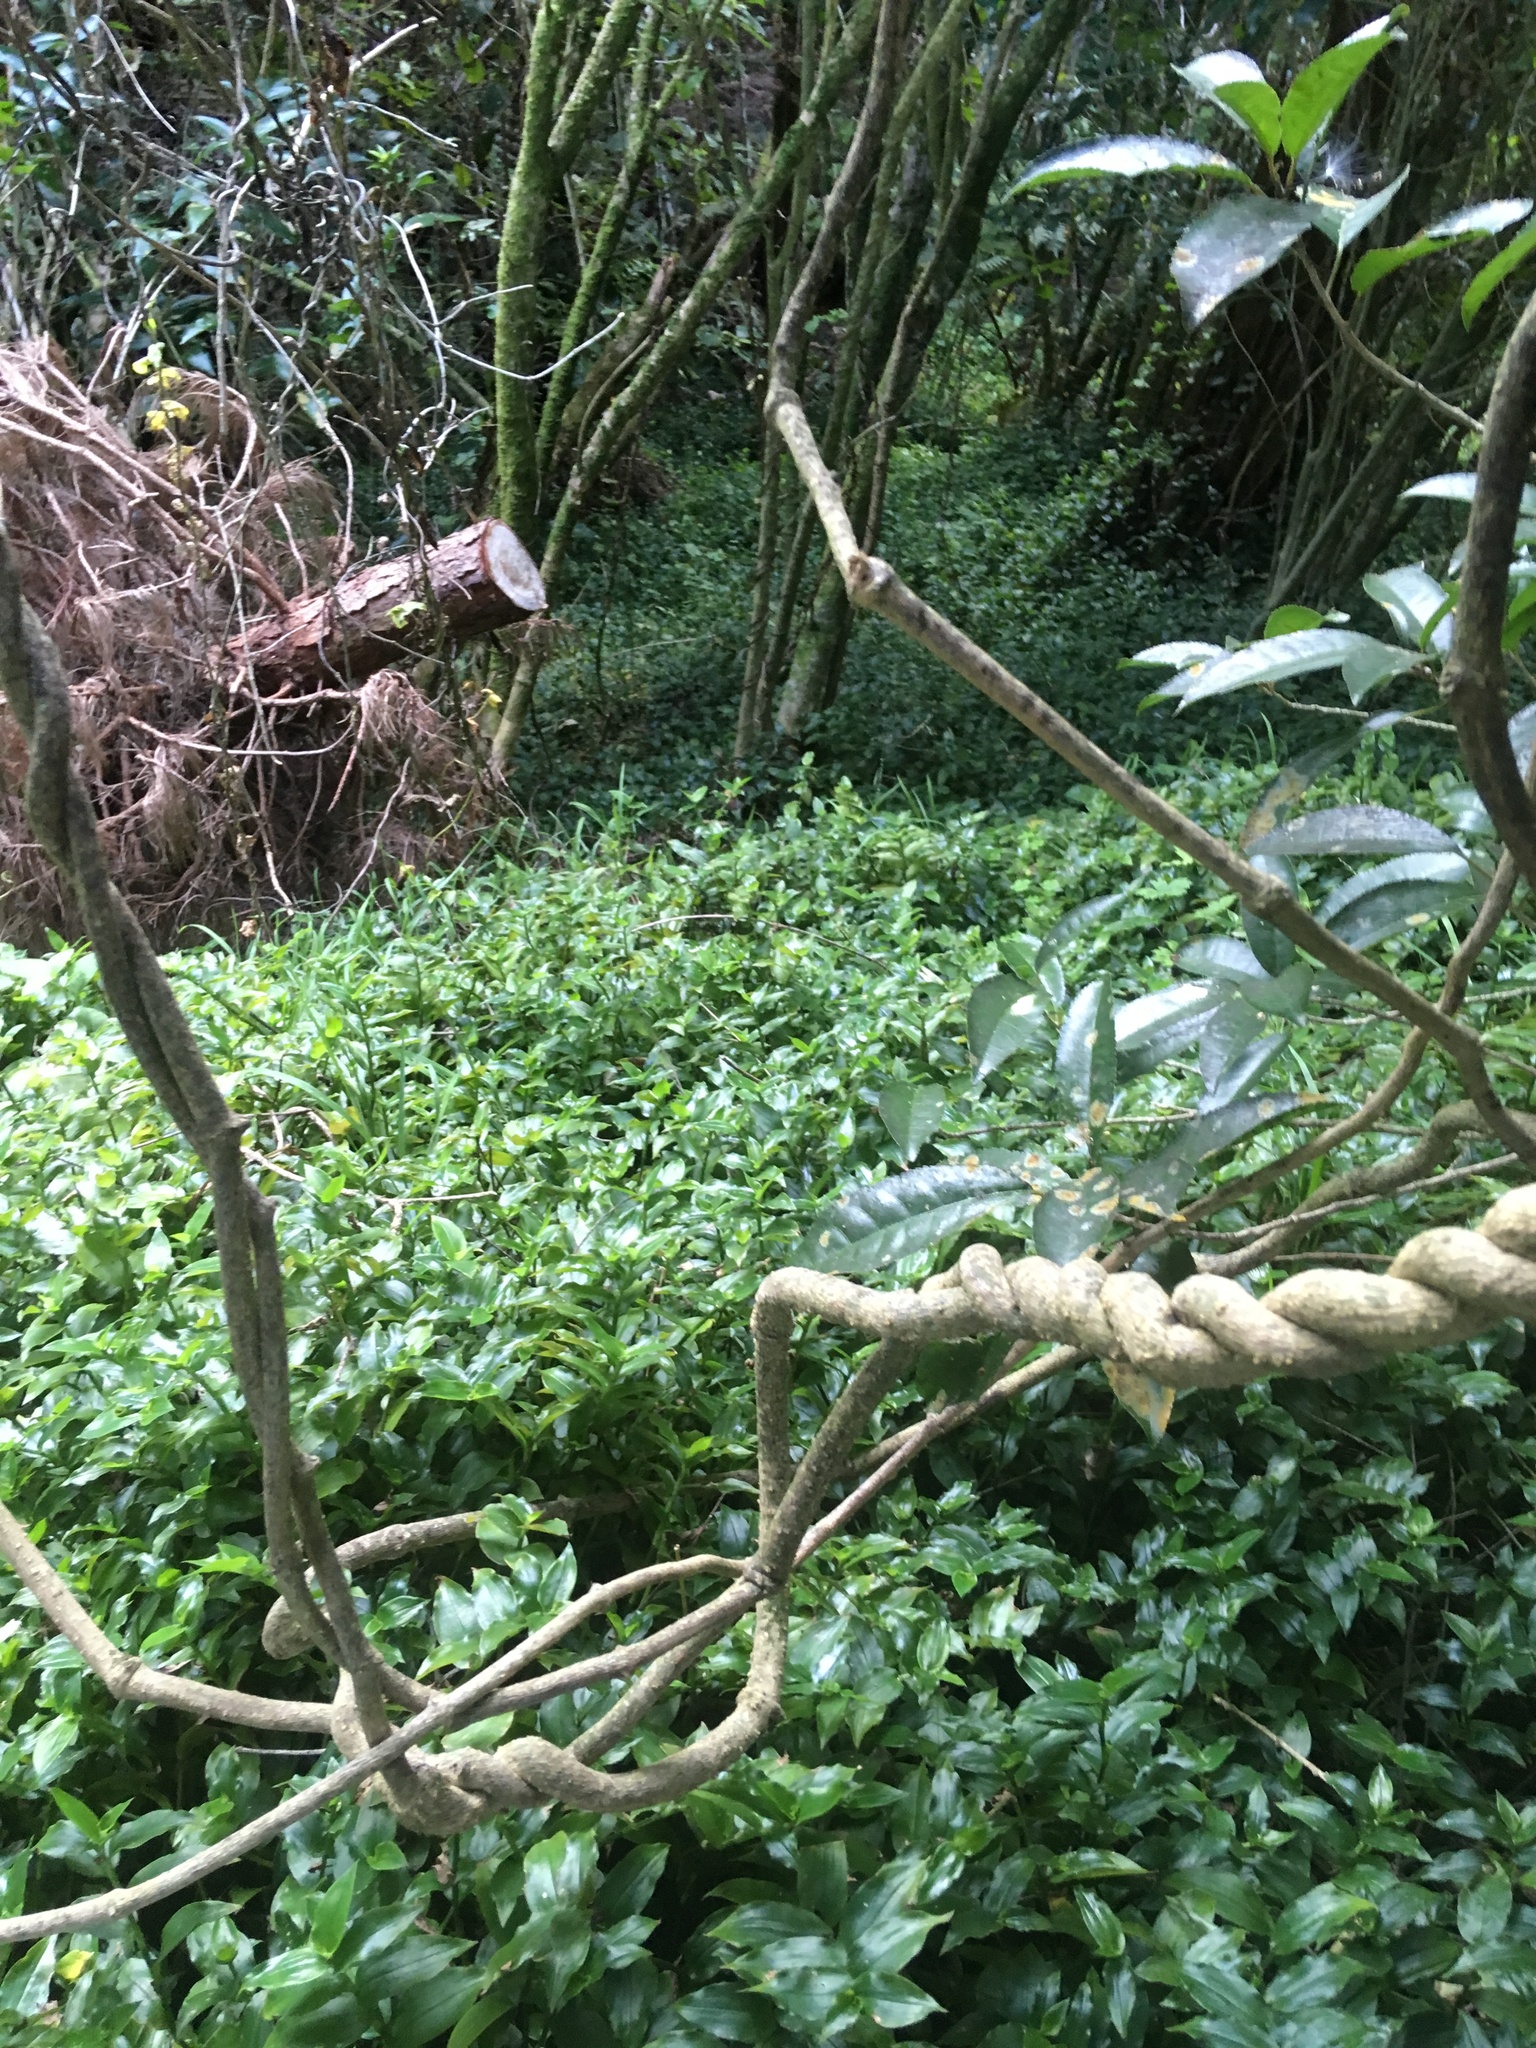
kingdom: Plantae
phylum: Tracheophyta
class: Magnoliopsida
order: Gentianales
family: Apocynaceae
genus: Araujia
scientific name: Araujia sericifera
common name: White bladderflower
